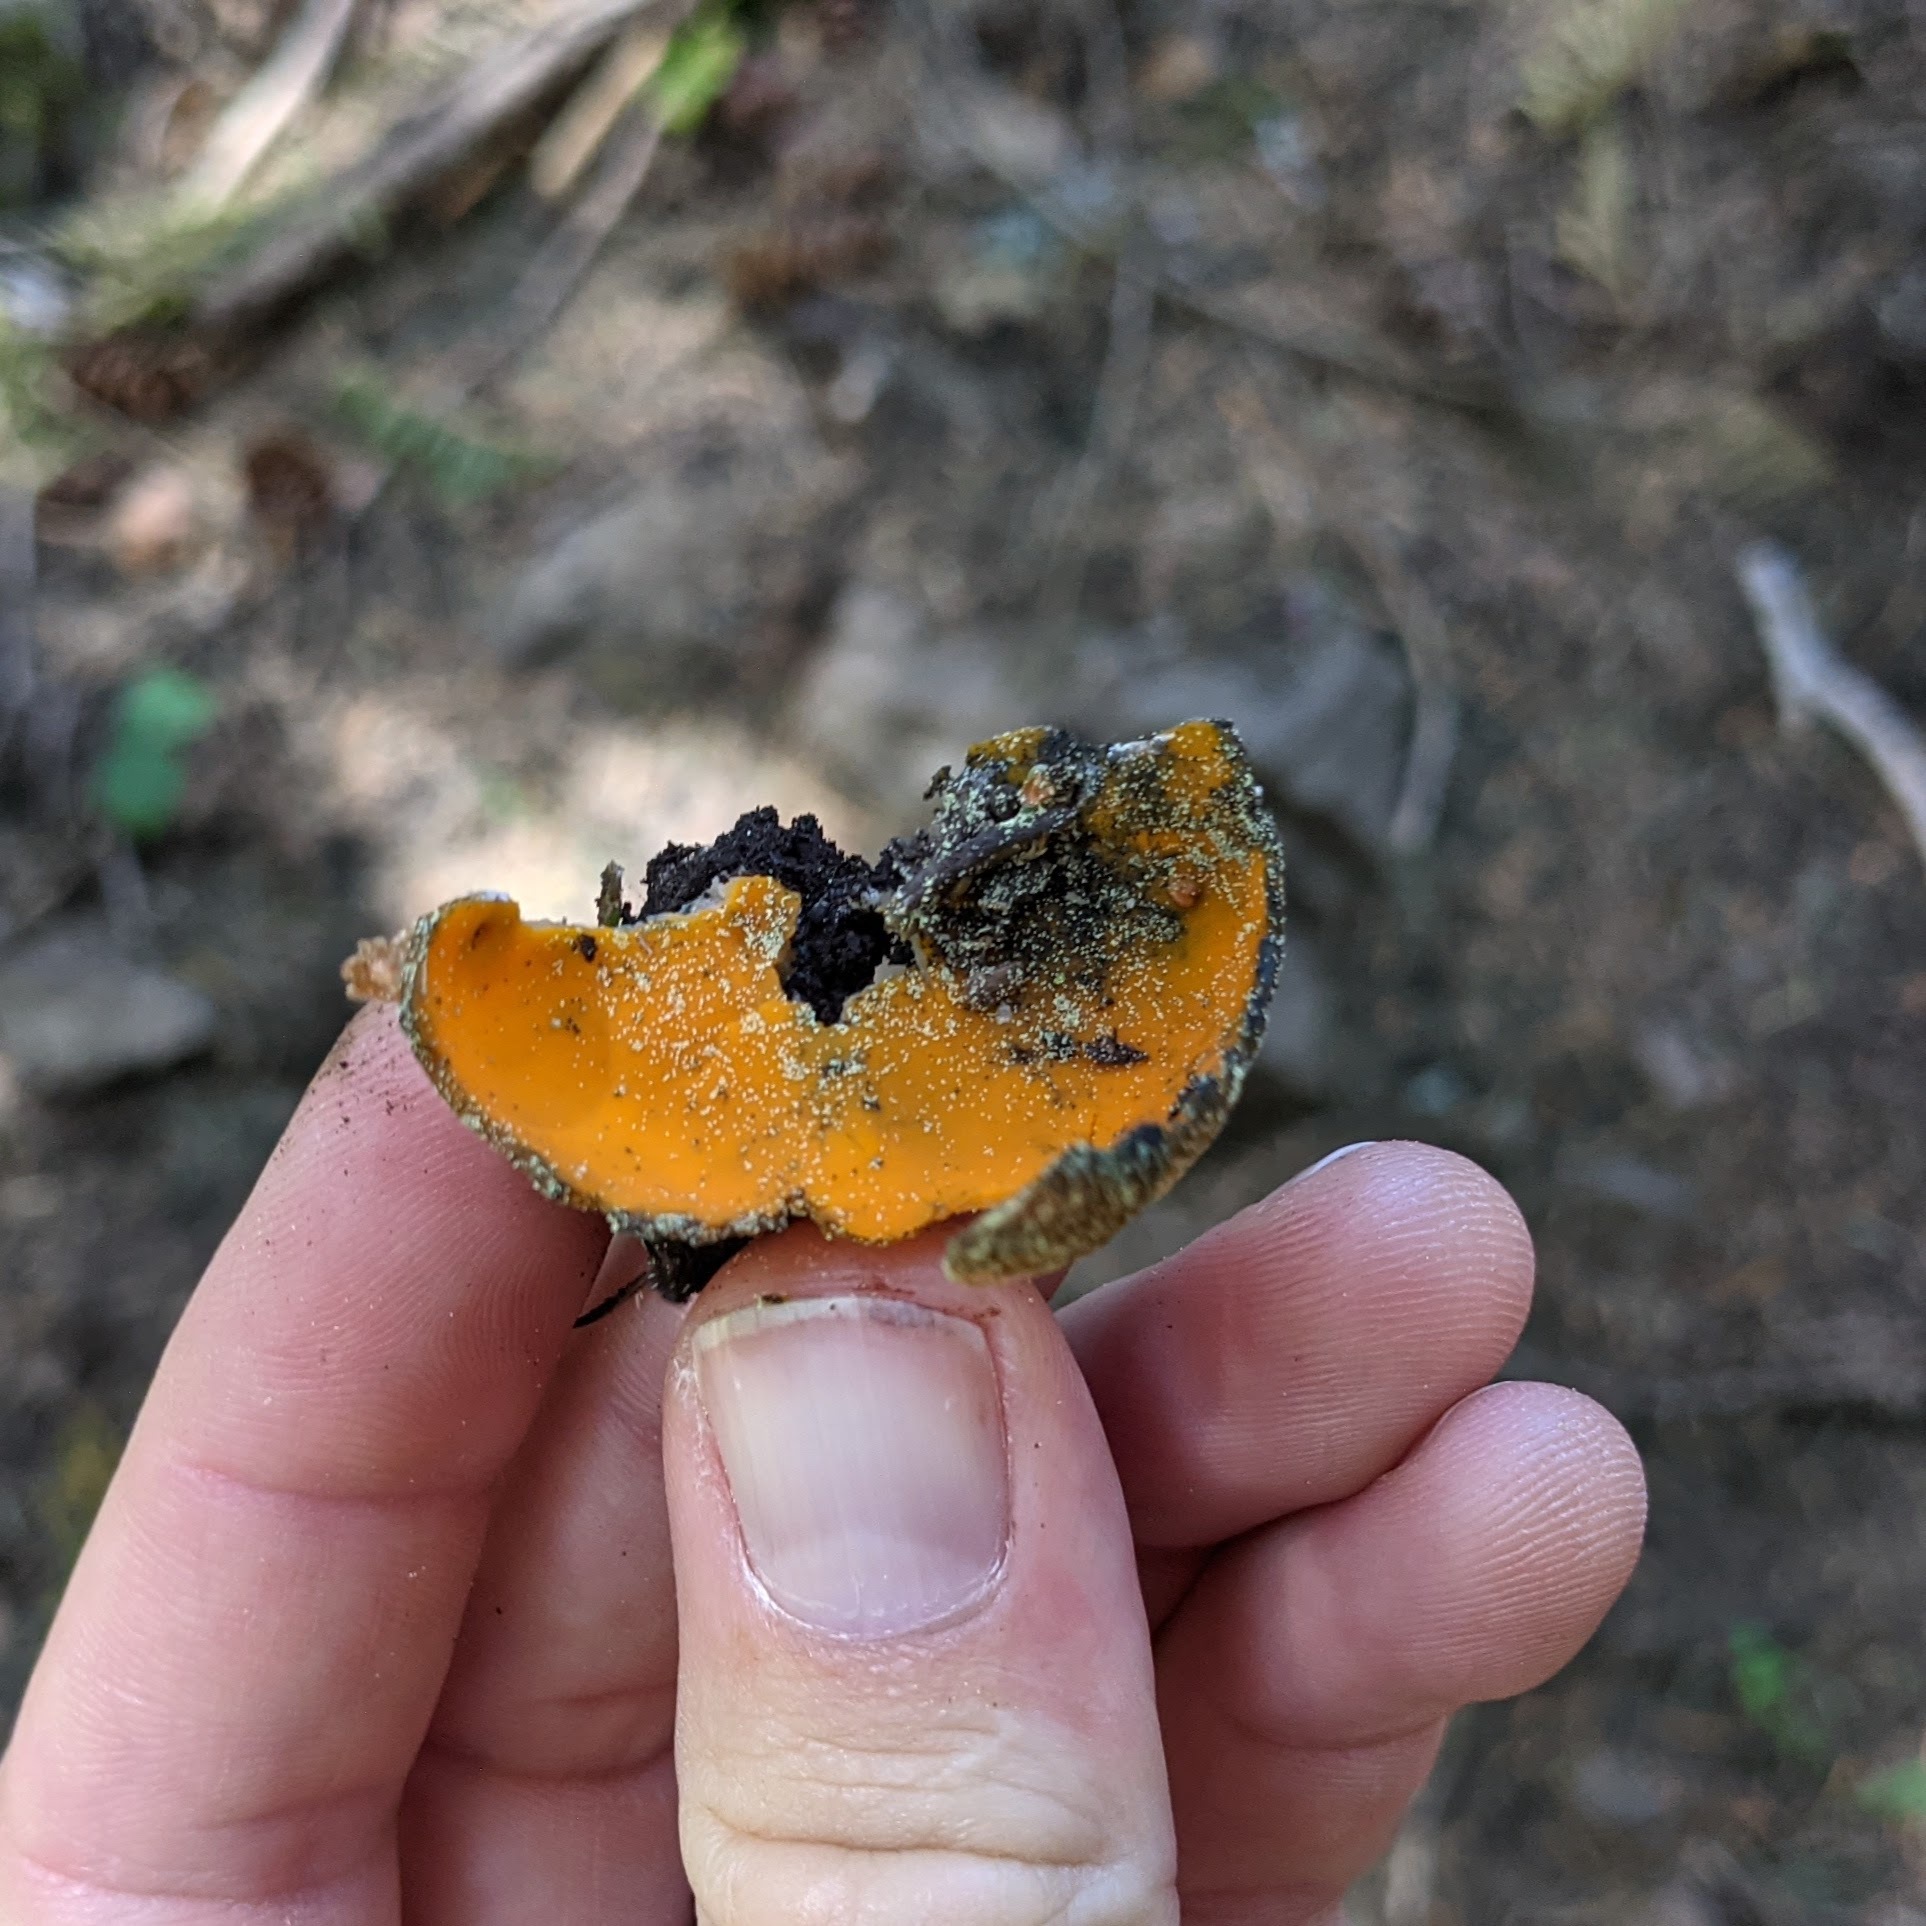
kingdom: Fungi
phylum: Ascomycota
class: Pezizomycetes
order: Pezizales
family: Caloscyphaceae
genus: Caloscypha
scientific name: Caloscypha fulgens
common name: Golden cup
